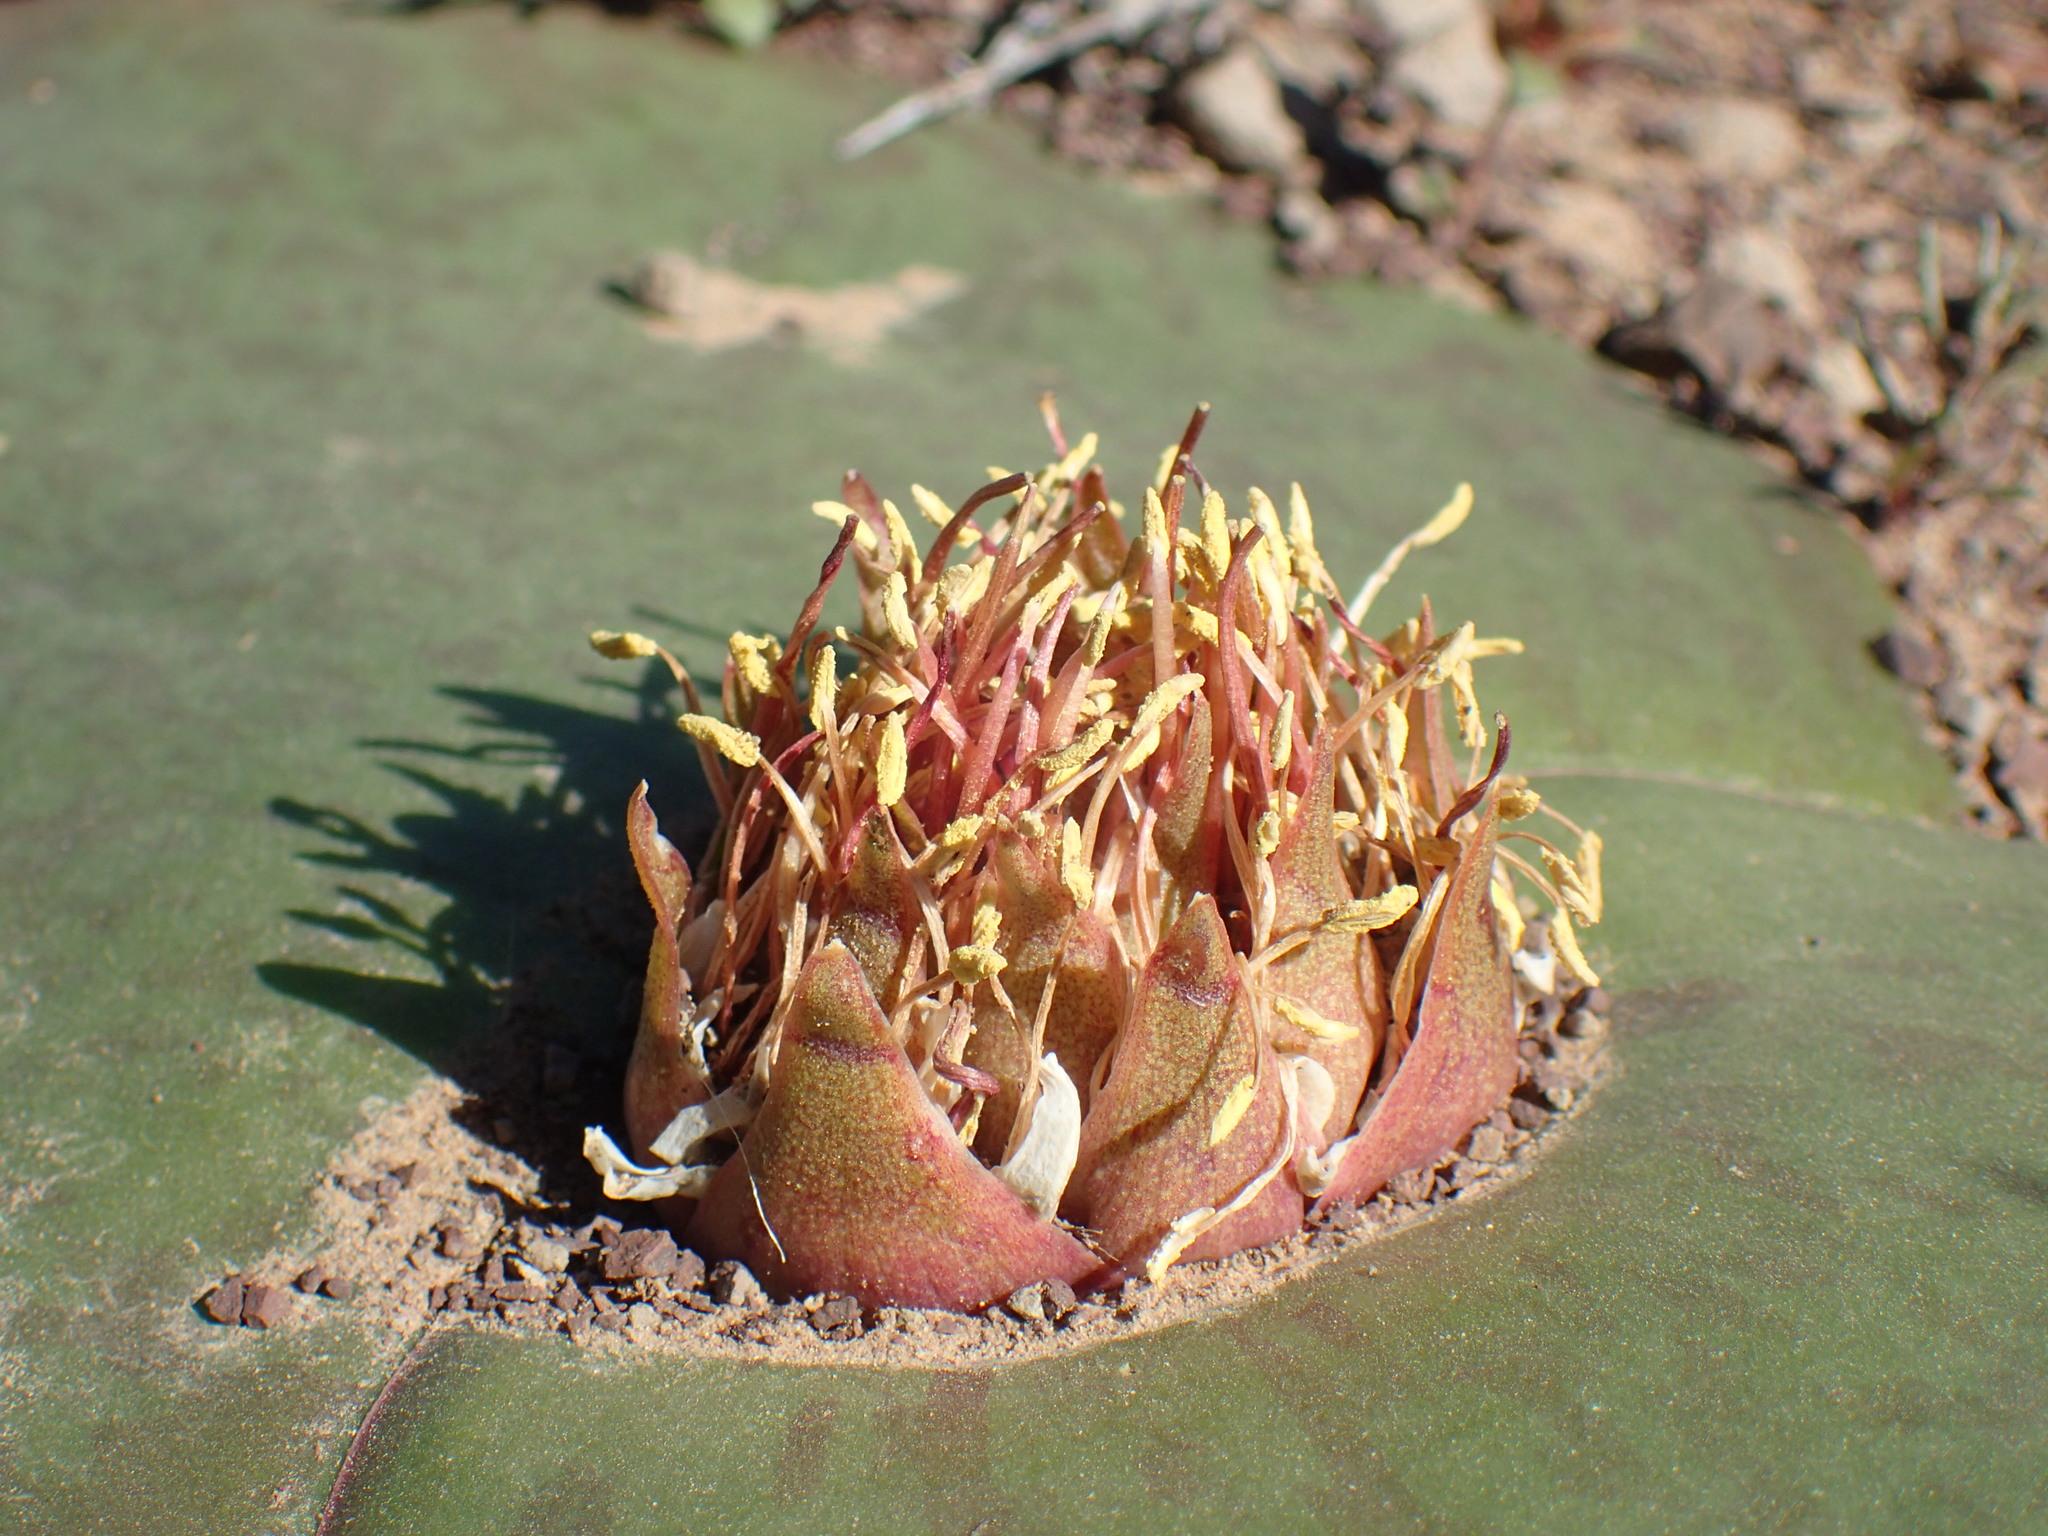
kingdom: Plantae
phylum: Tracheophyta
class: Liliopsida
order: Asparagales
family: Asparagaceae
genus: Massonia
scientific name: Massonia depressa
